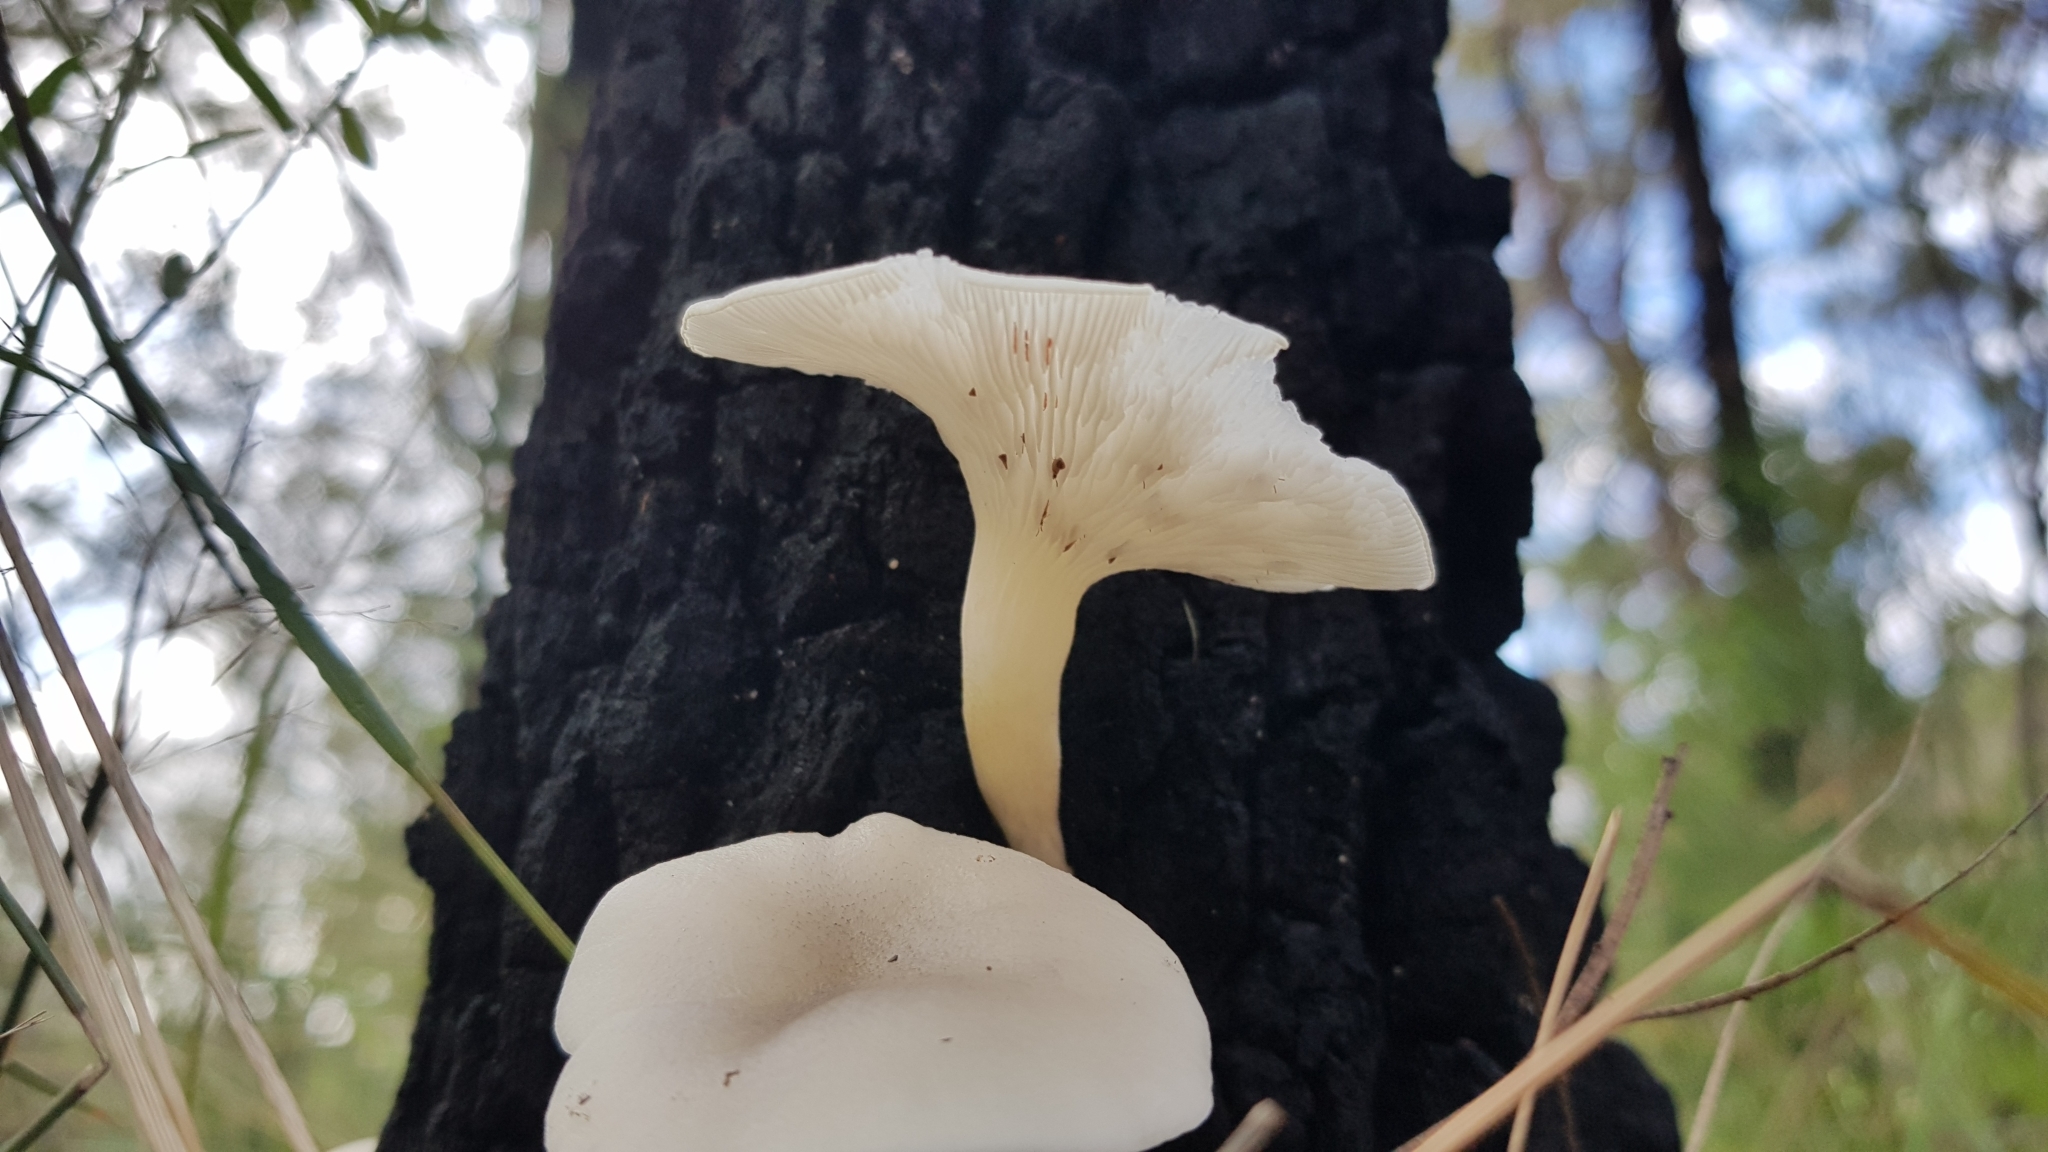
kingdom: Fungi
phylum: Basidiomycota
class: Agaricomycetes
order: Agaricales
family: Omphalotaceae
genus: Omphalotus
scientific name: Omphalotus nidiformis
